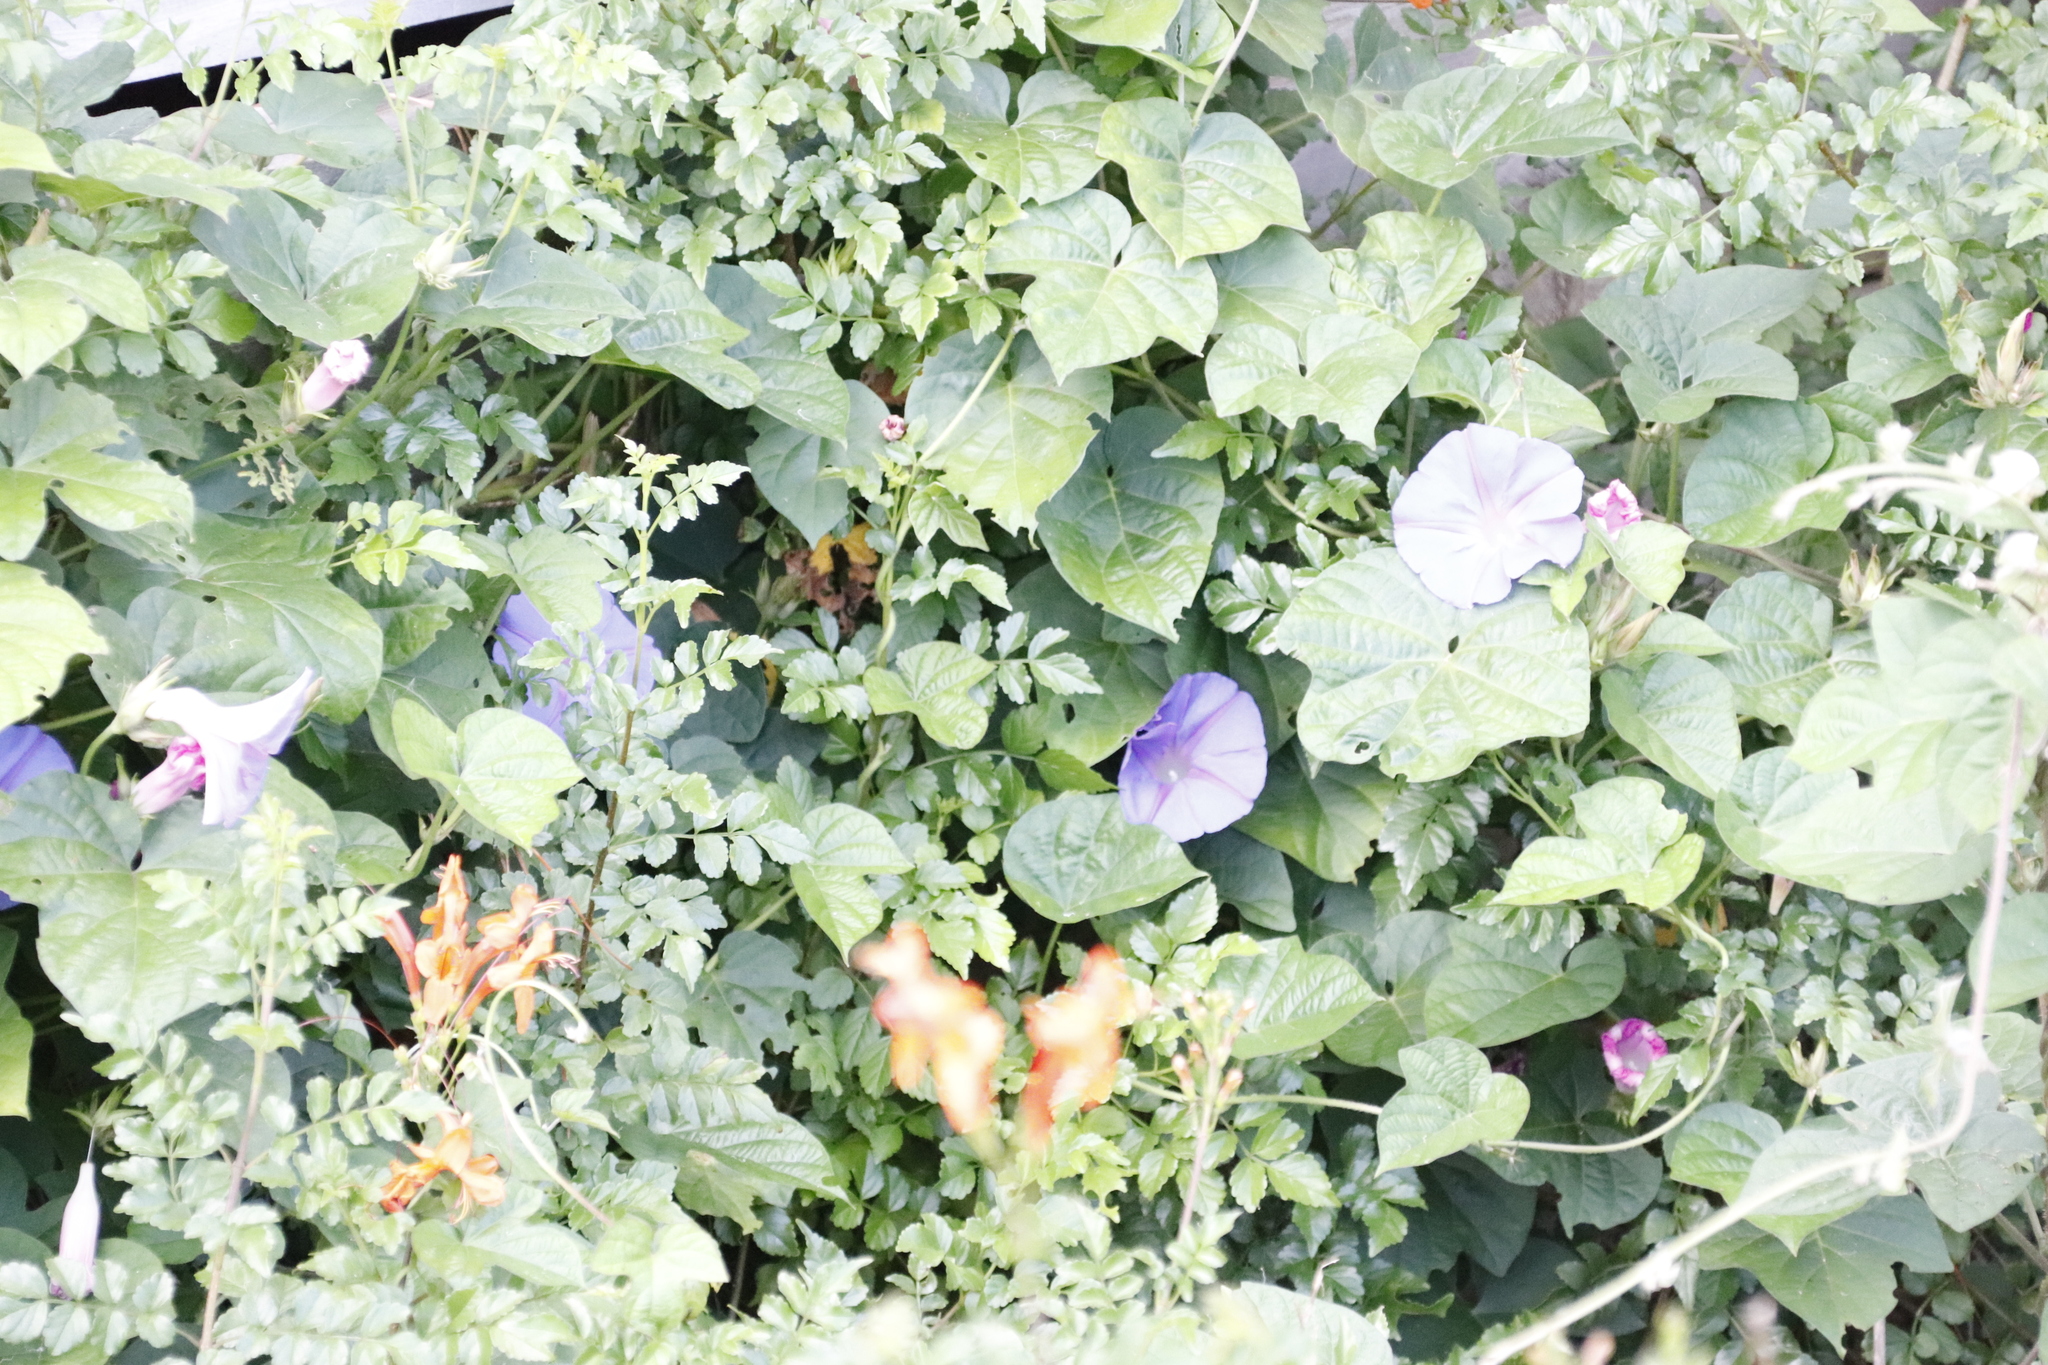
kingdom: Plantae
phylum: Tracheophyta
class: Magnoliopsida
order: Lamiales
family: Bignoniaceae
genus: Tecomaria
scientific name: Tecomaria capensis
